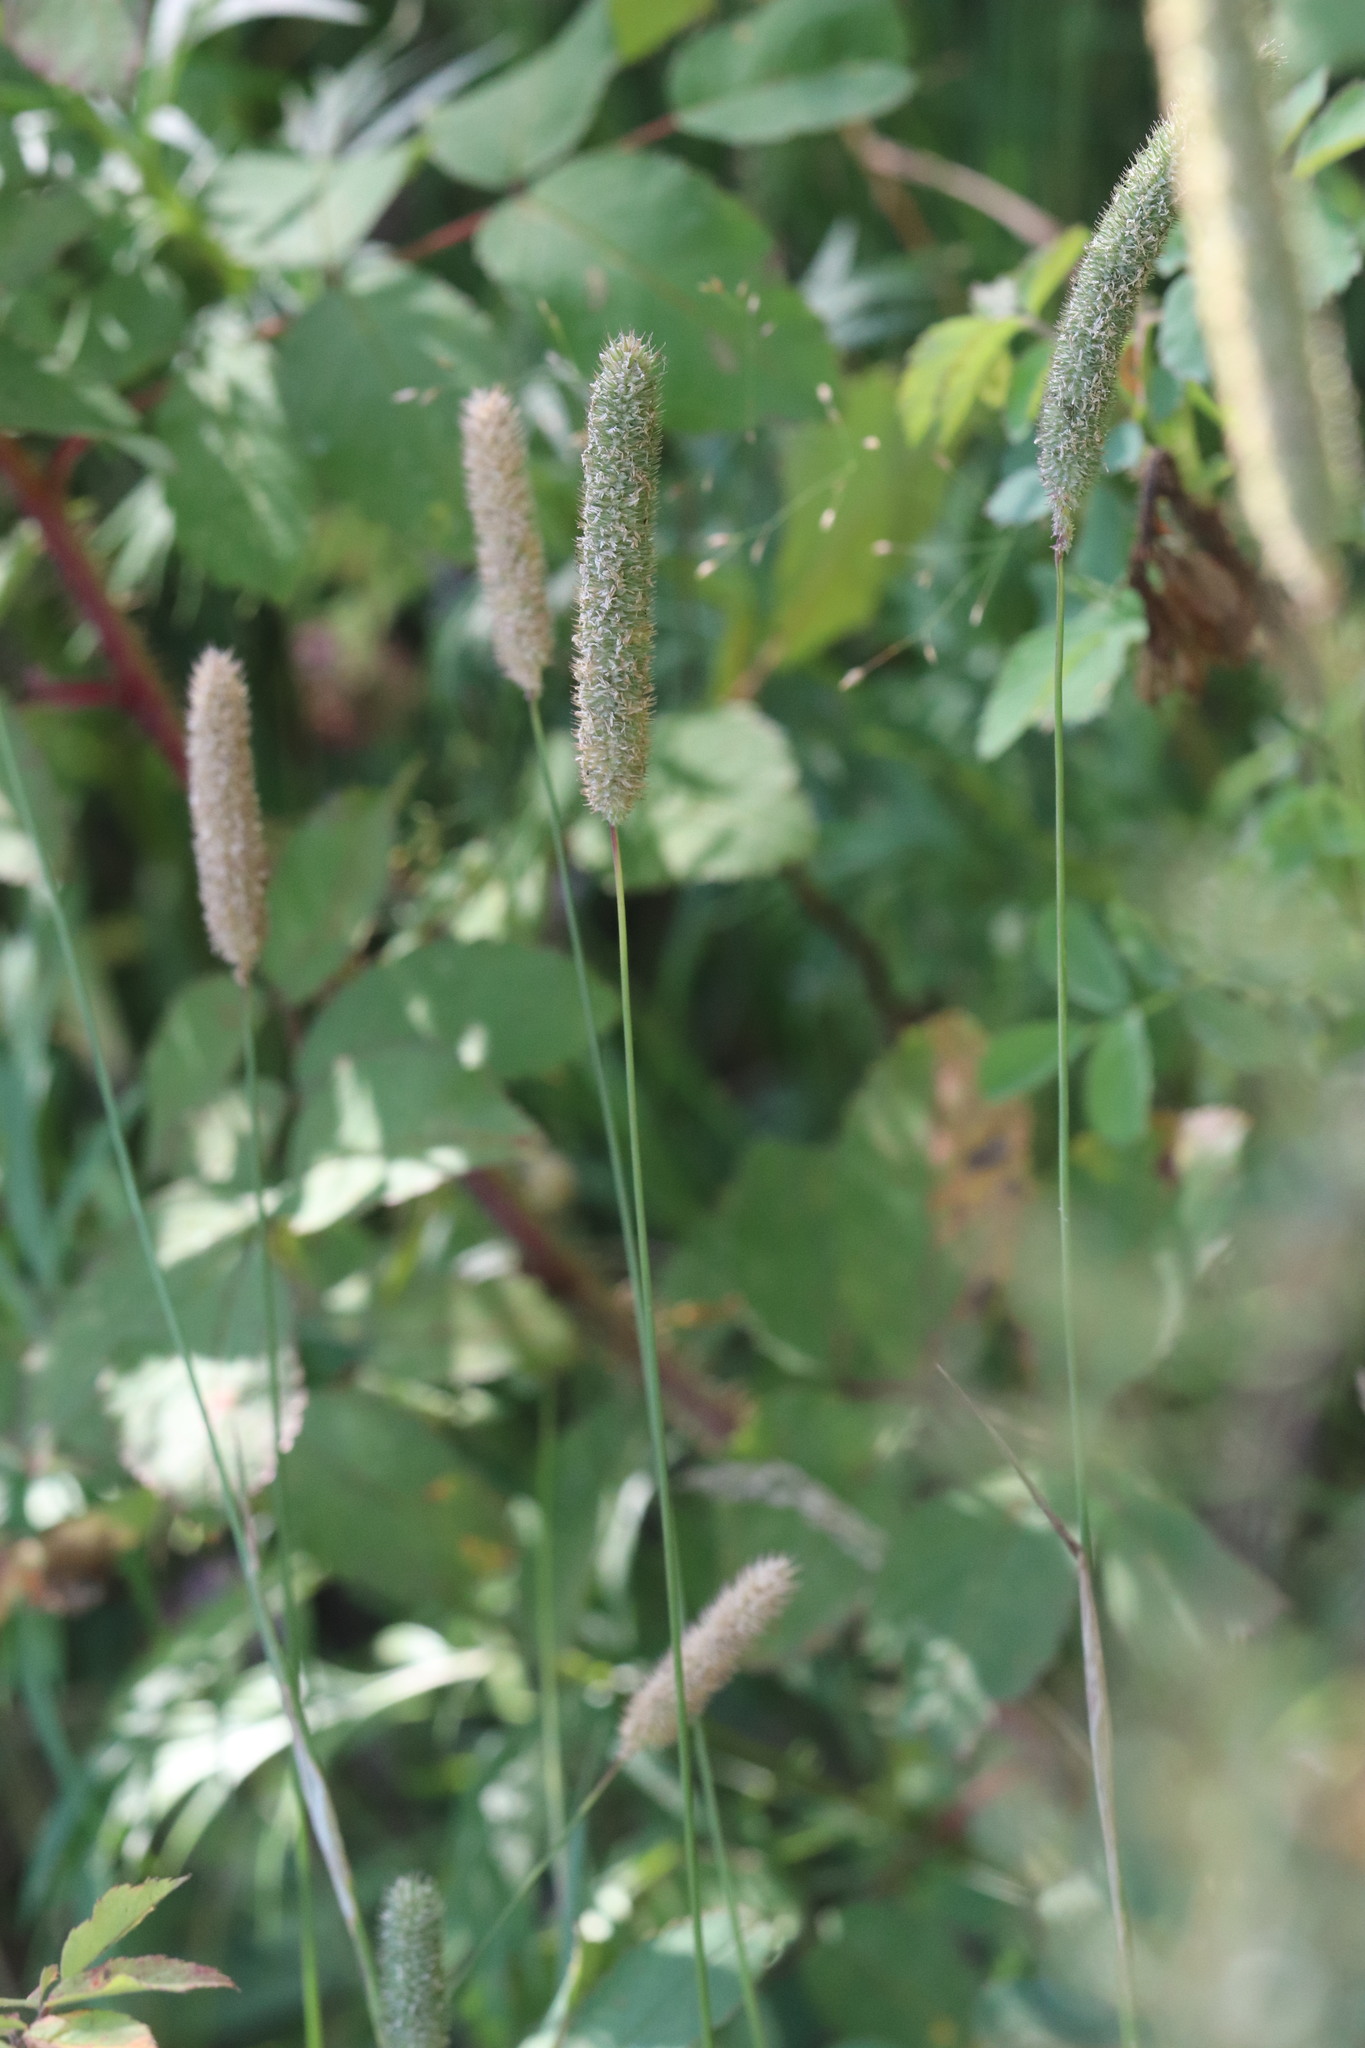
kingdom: Plantae
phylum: Tracheophyta
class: Liliopsida
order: Poales
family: Poaceae
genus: Phleum
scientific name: Phleum pratense
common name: Timothy grass
